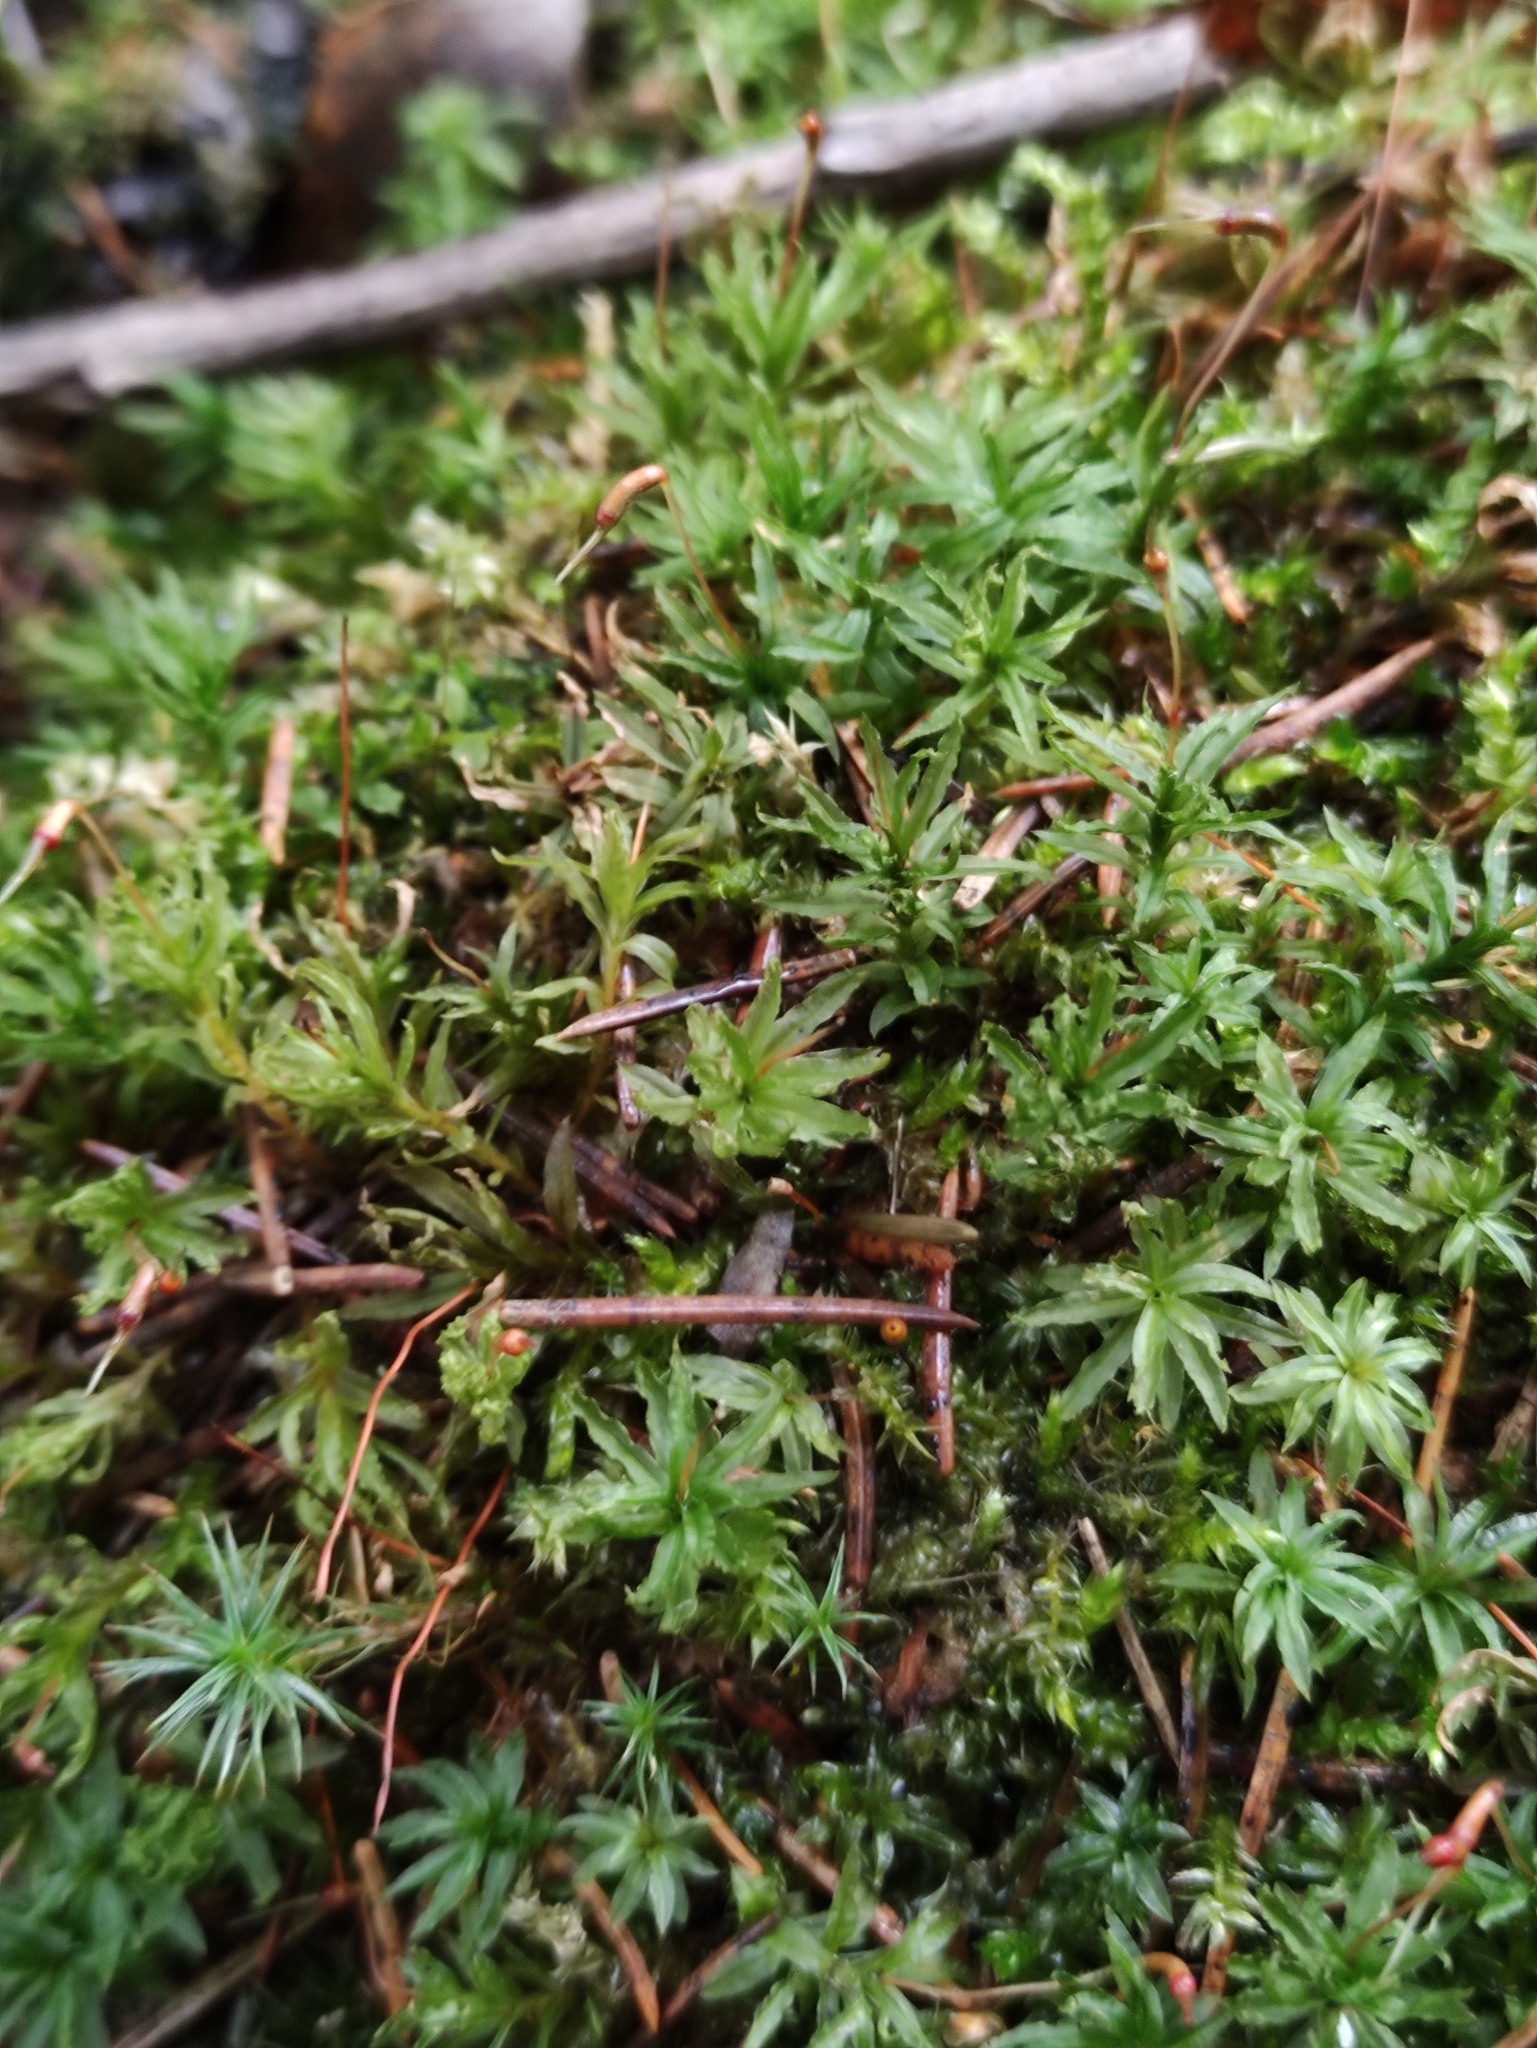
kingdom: Plantae
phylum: Bryophyta
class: Polytrichopsida
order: Polytrichales
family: Polytrichaceae
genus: Atrichum
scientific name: Atrichum undulatum
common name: Common smoothcap
